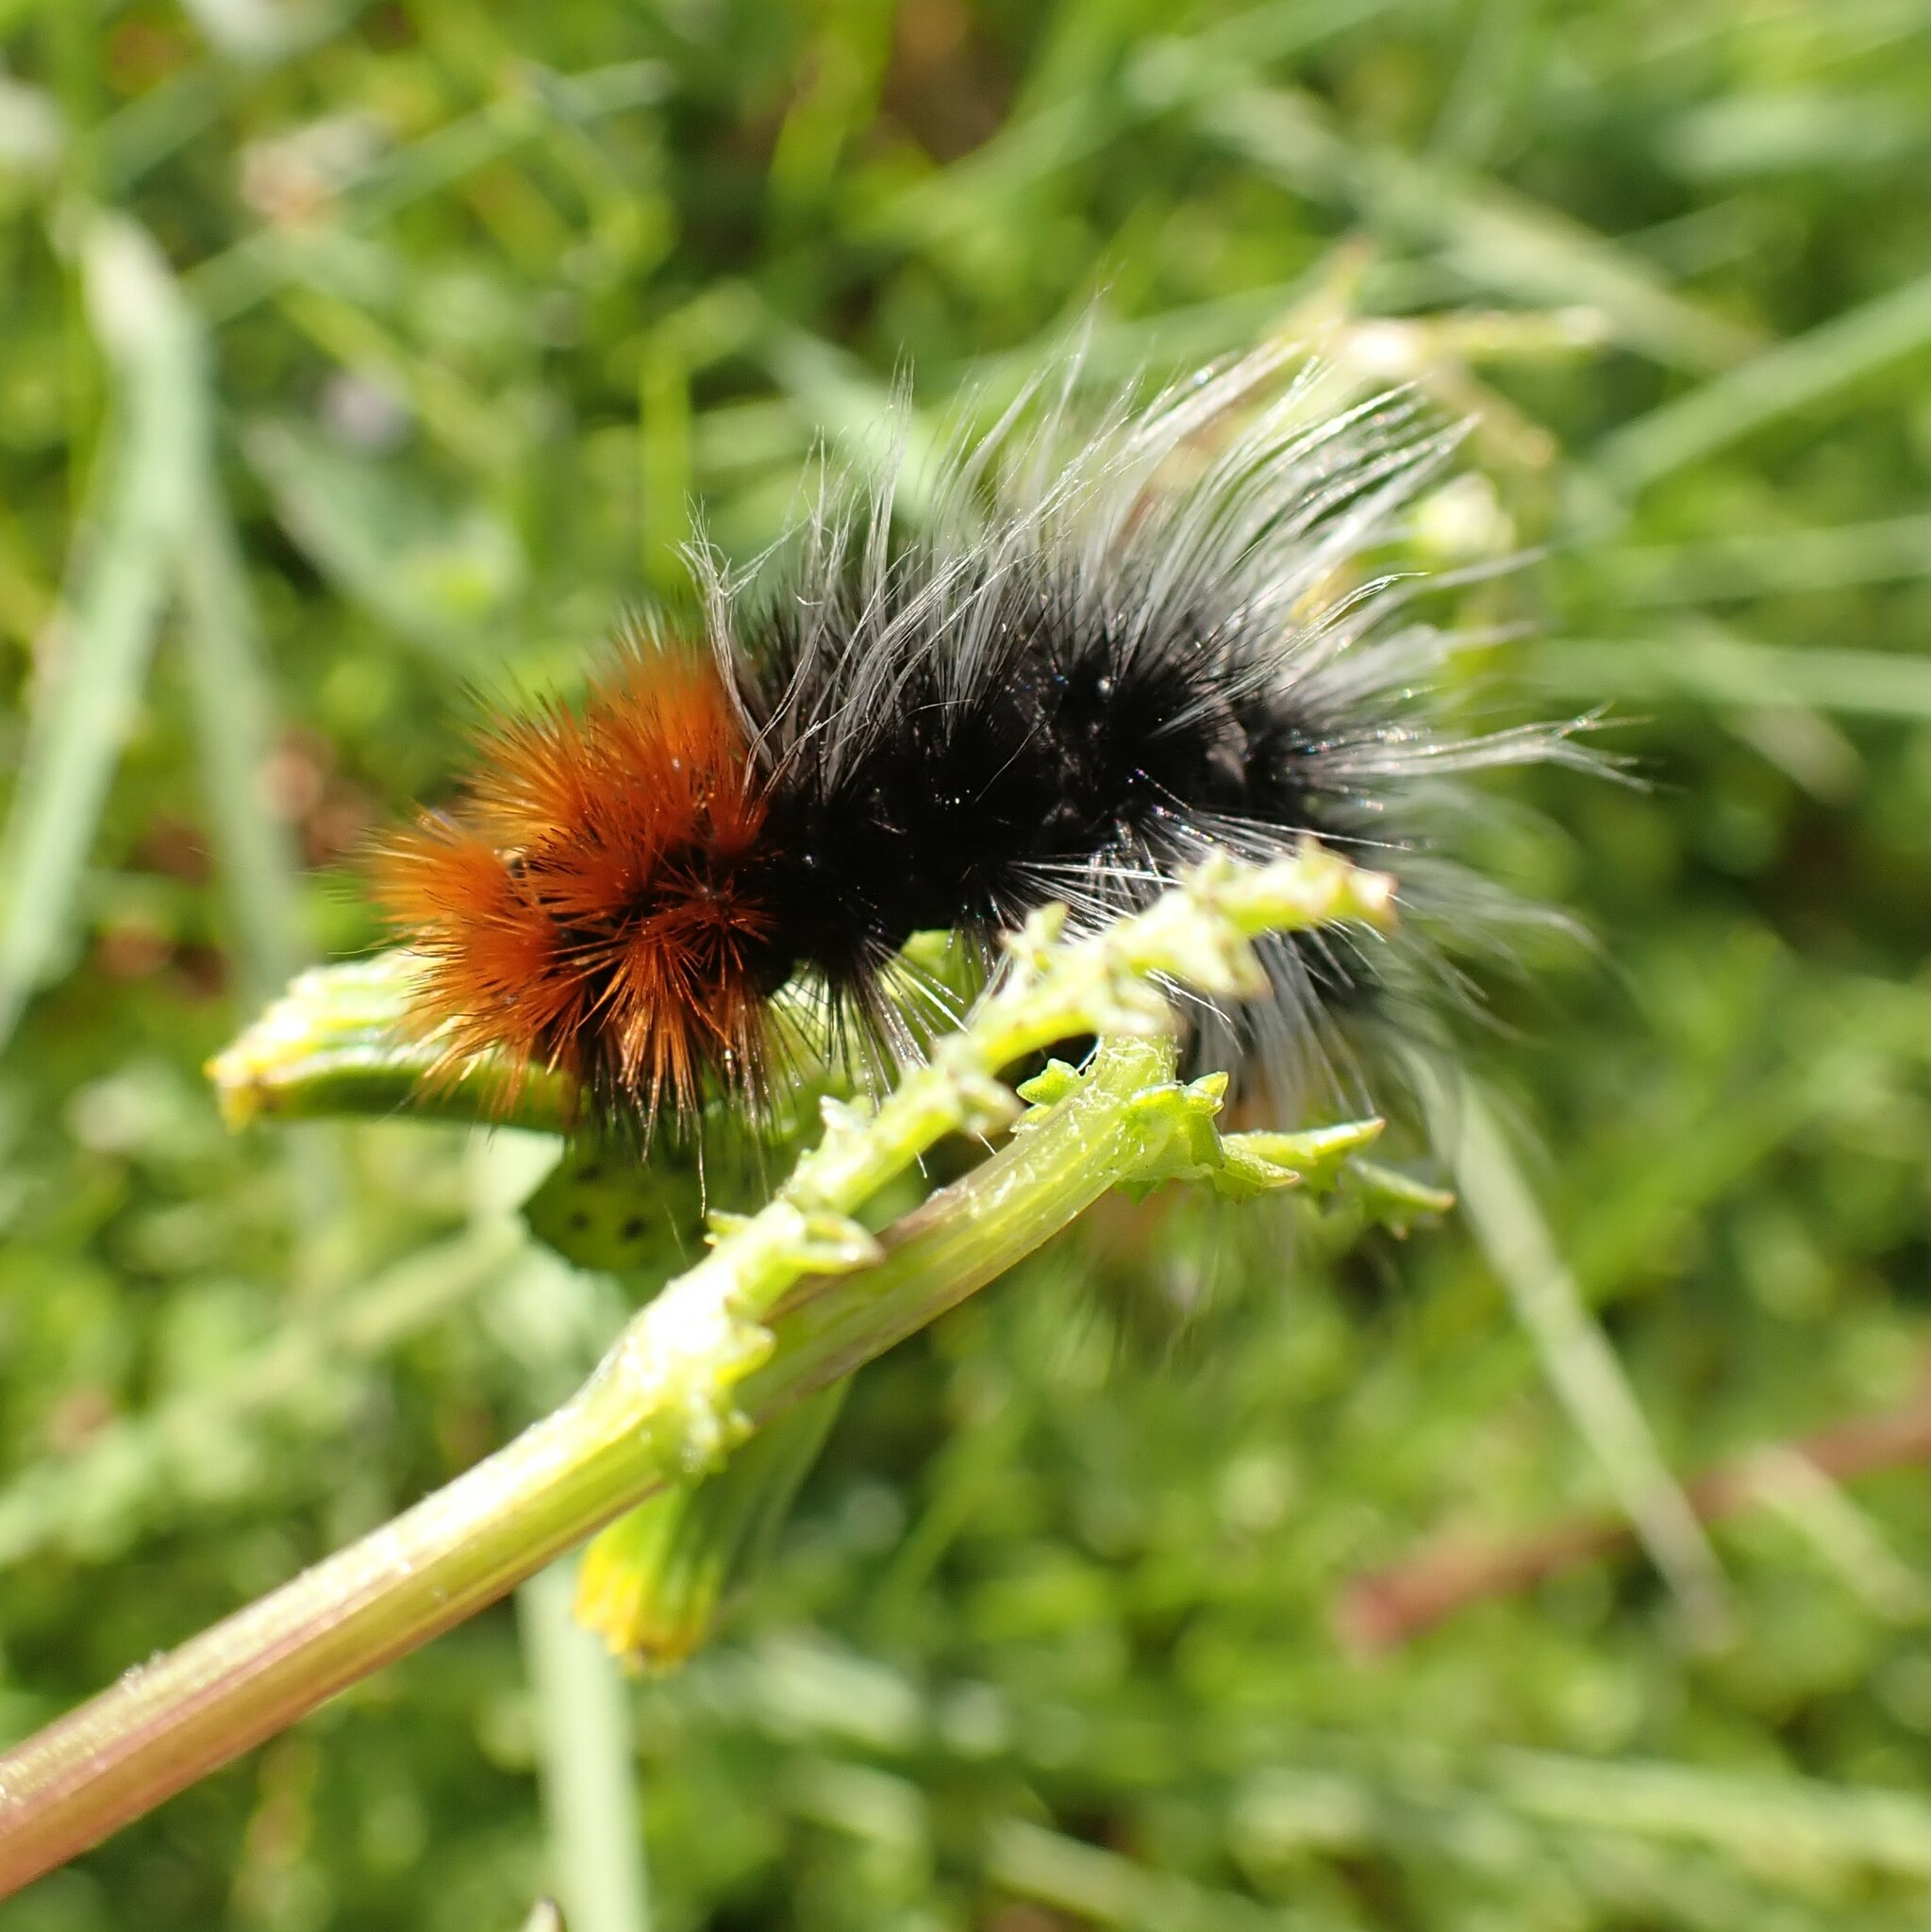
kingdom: Animalia
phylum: Arthropoda
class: Insecta
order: Lepidoptera
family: Erebidae
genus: Arctia
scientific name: Arctia tigrina
